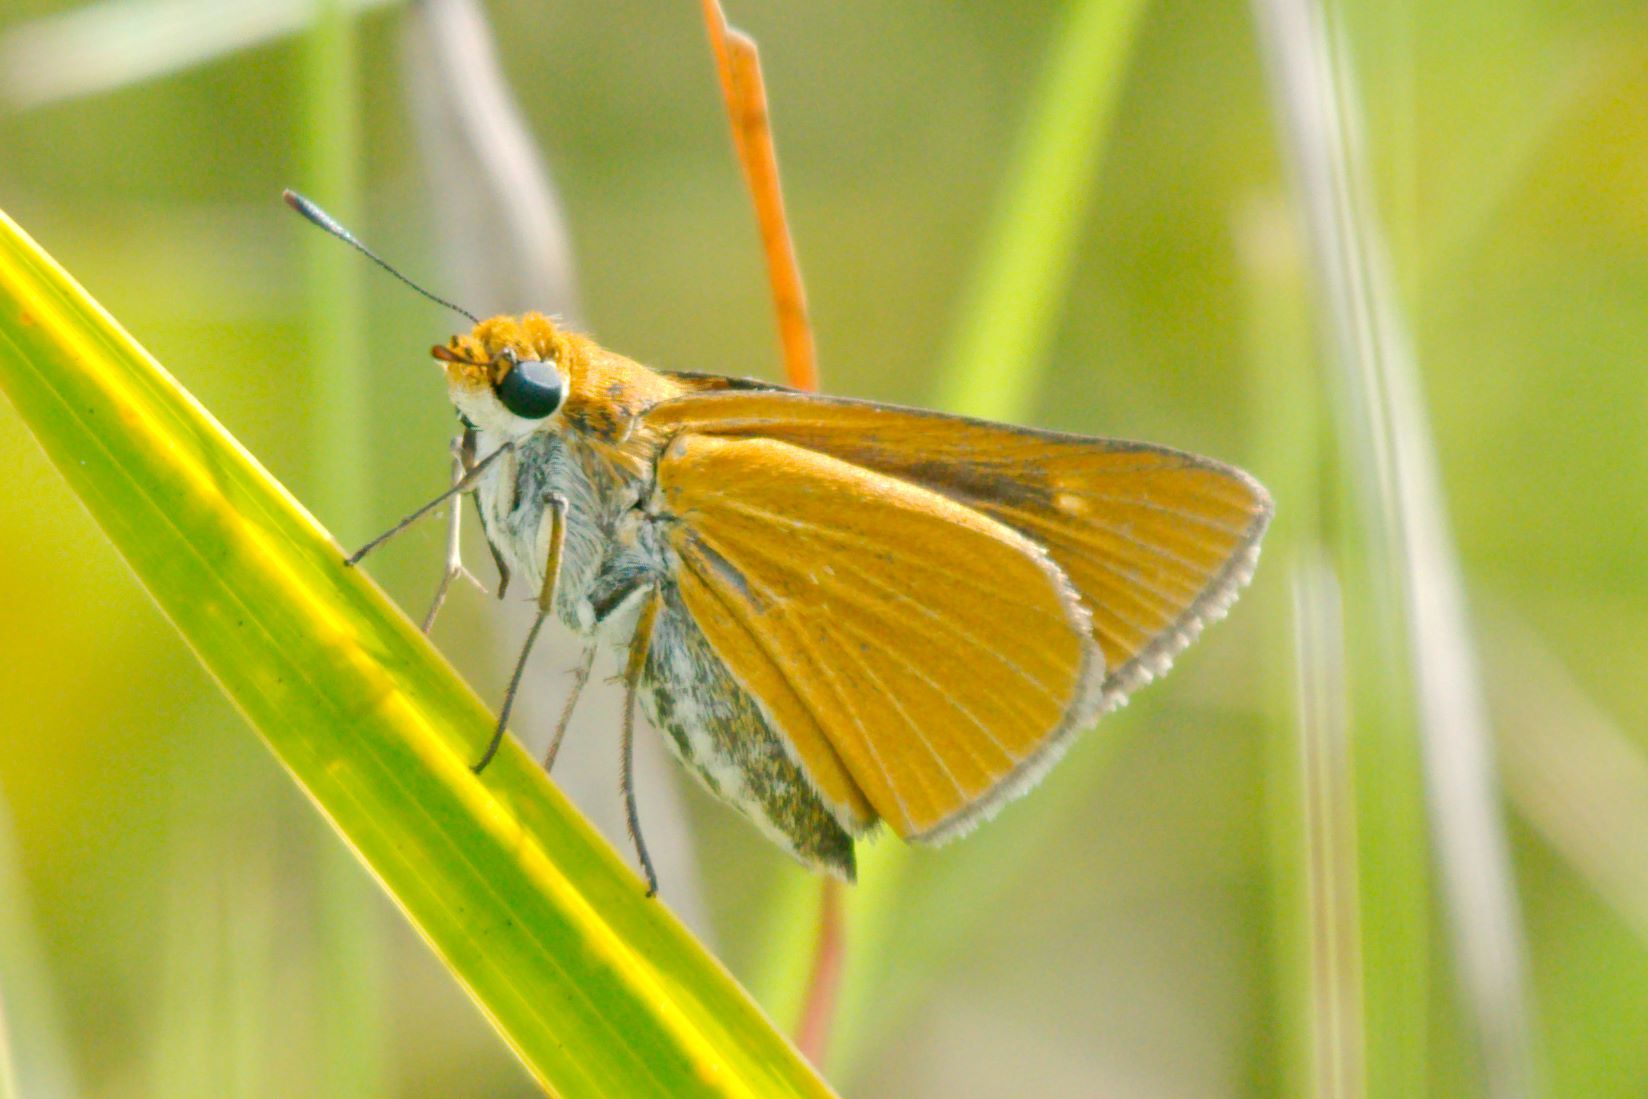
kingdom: Animalia
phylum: Arthropoda
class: Insecta
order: Lepidoptera
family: Hesperiidae
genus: Euphyes
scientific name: Euphyes arpa
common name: Palmetto skipper
